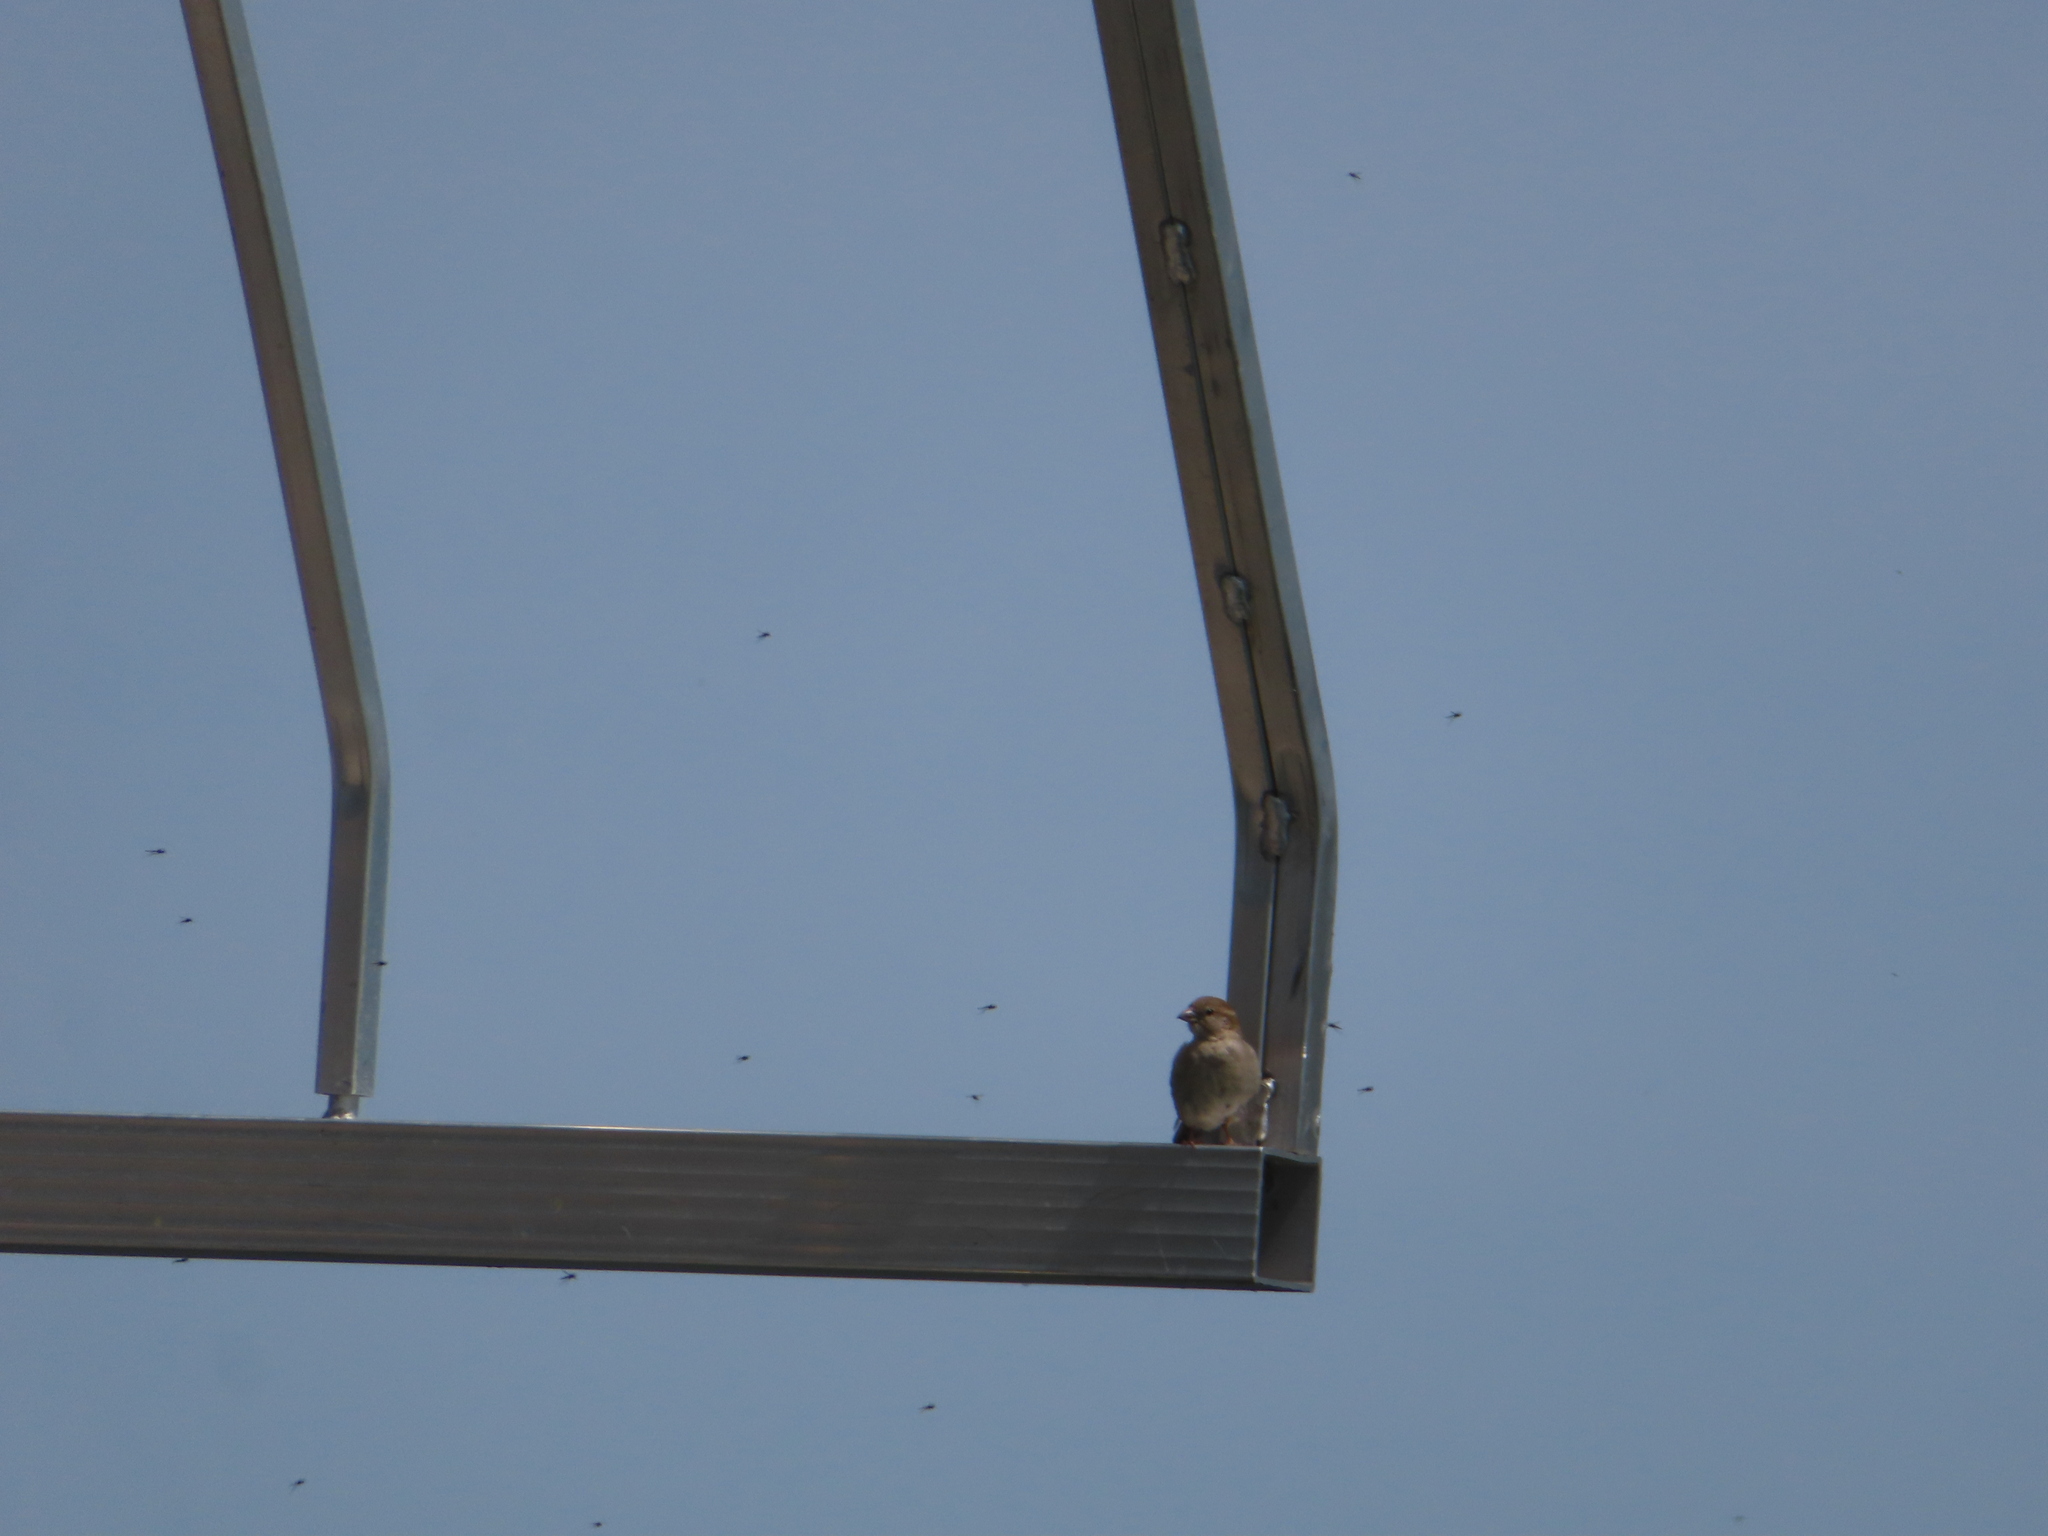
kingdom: Animalia
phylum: Chordata
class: Aves
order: Passeriformes
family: Passeridae
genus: Passer
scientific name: Passer domesticus
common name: House sparrow
